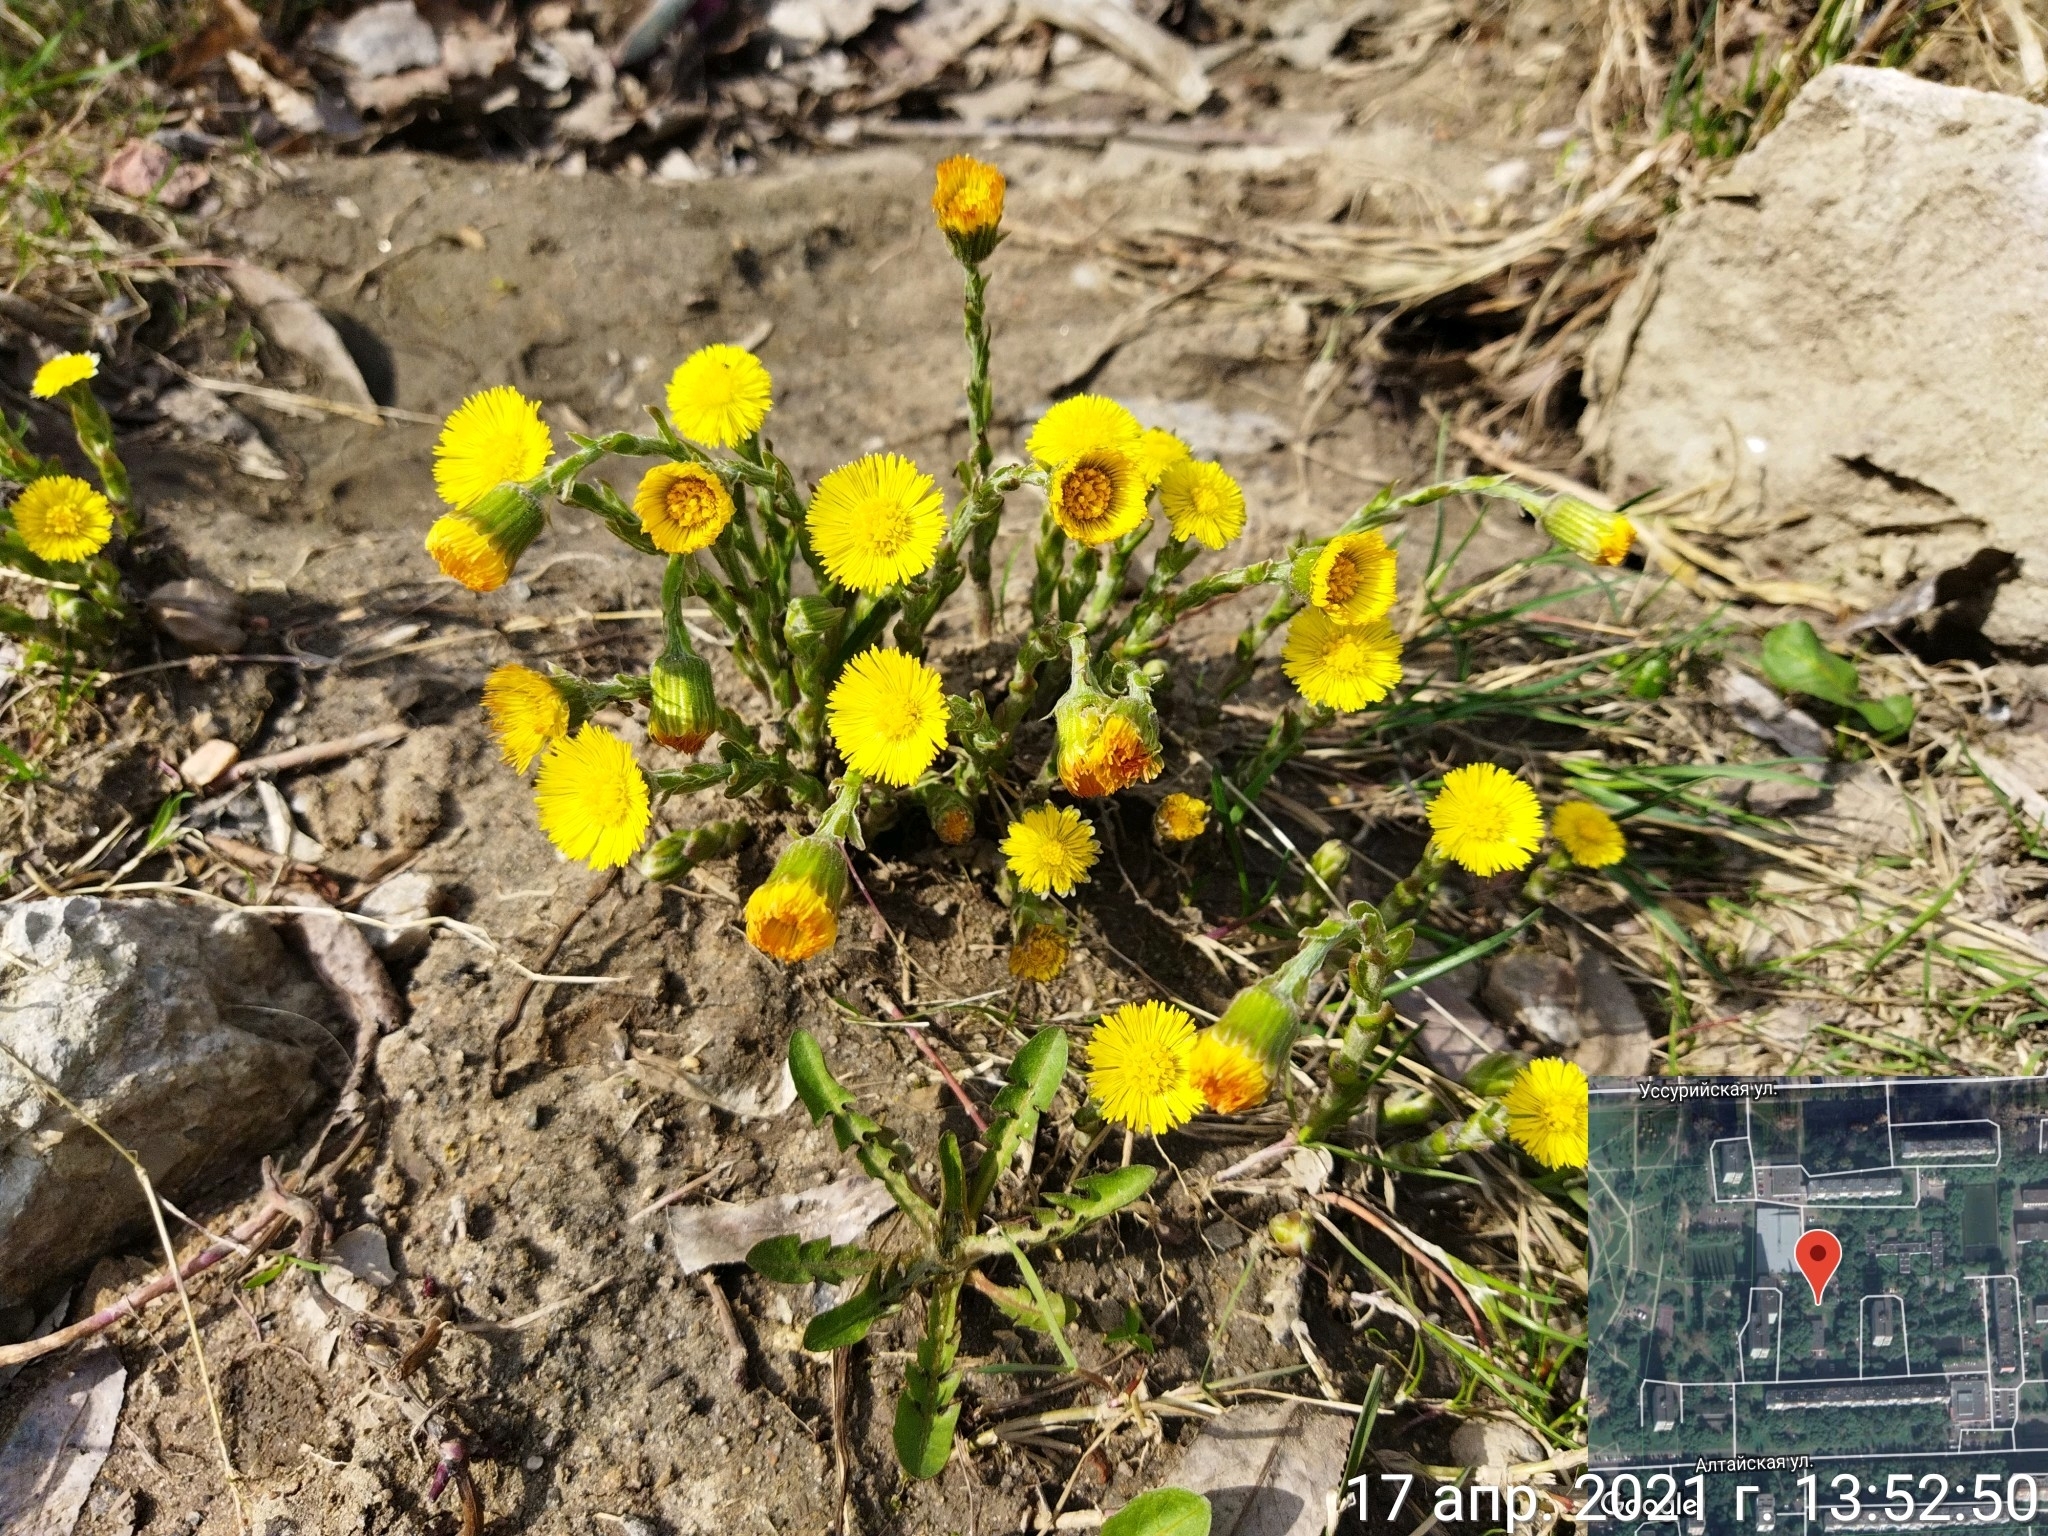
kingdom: Plantae
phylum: Tracheophyta
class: Magnoliopsida
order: Asterales
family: Asteraceae
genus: Tussilago
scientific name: Tussilago farfara
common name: Coltsfoot
